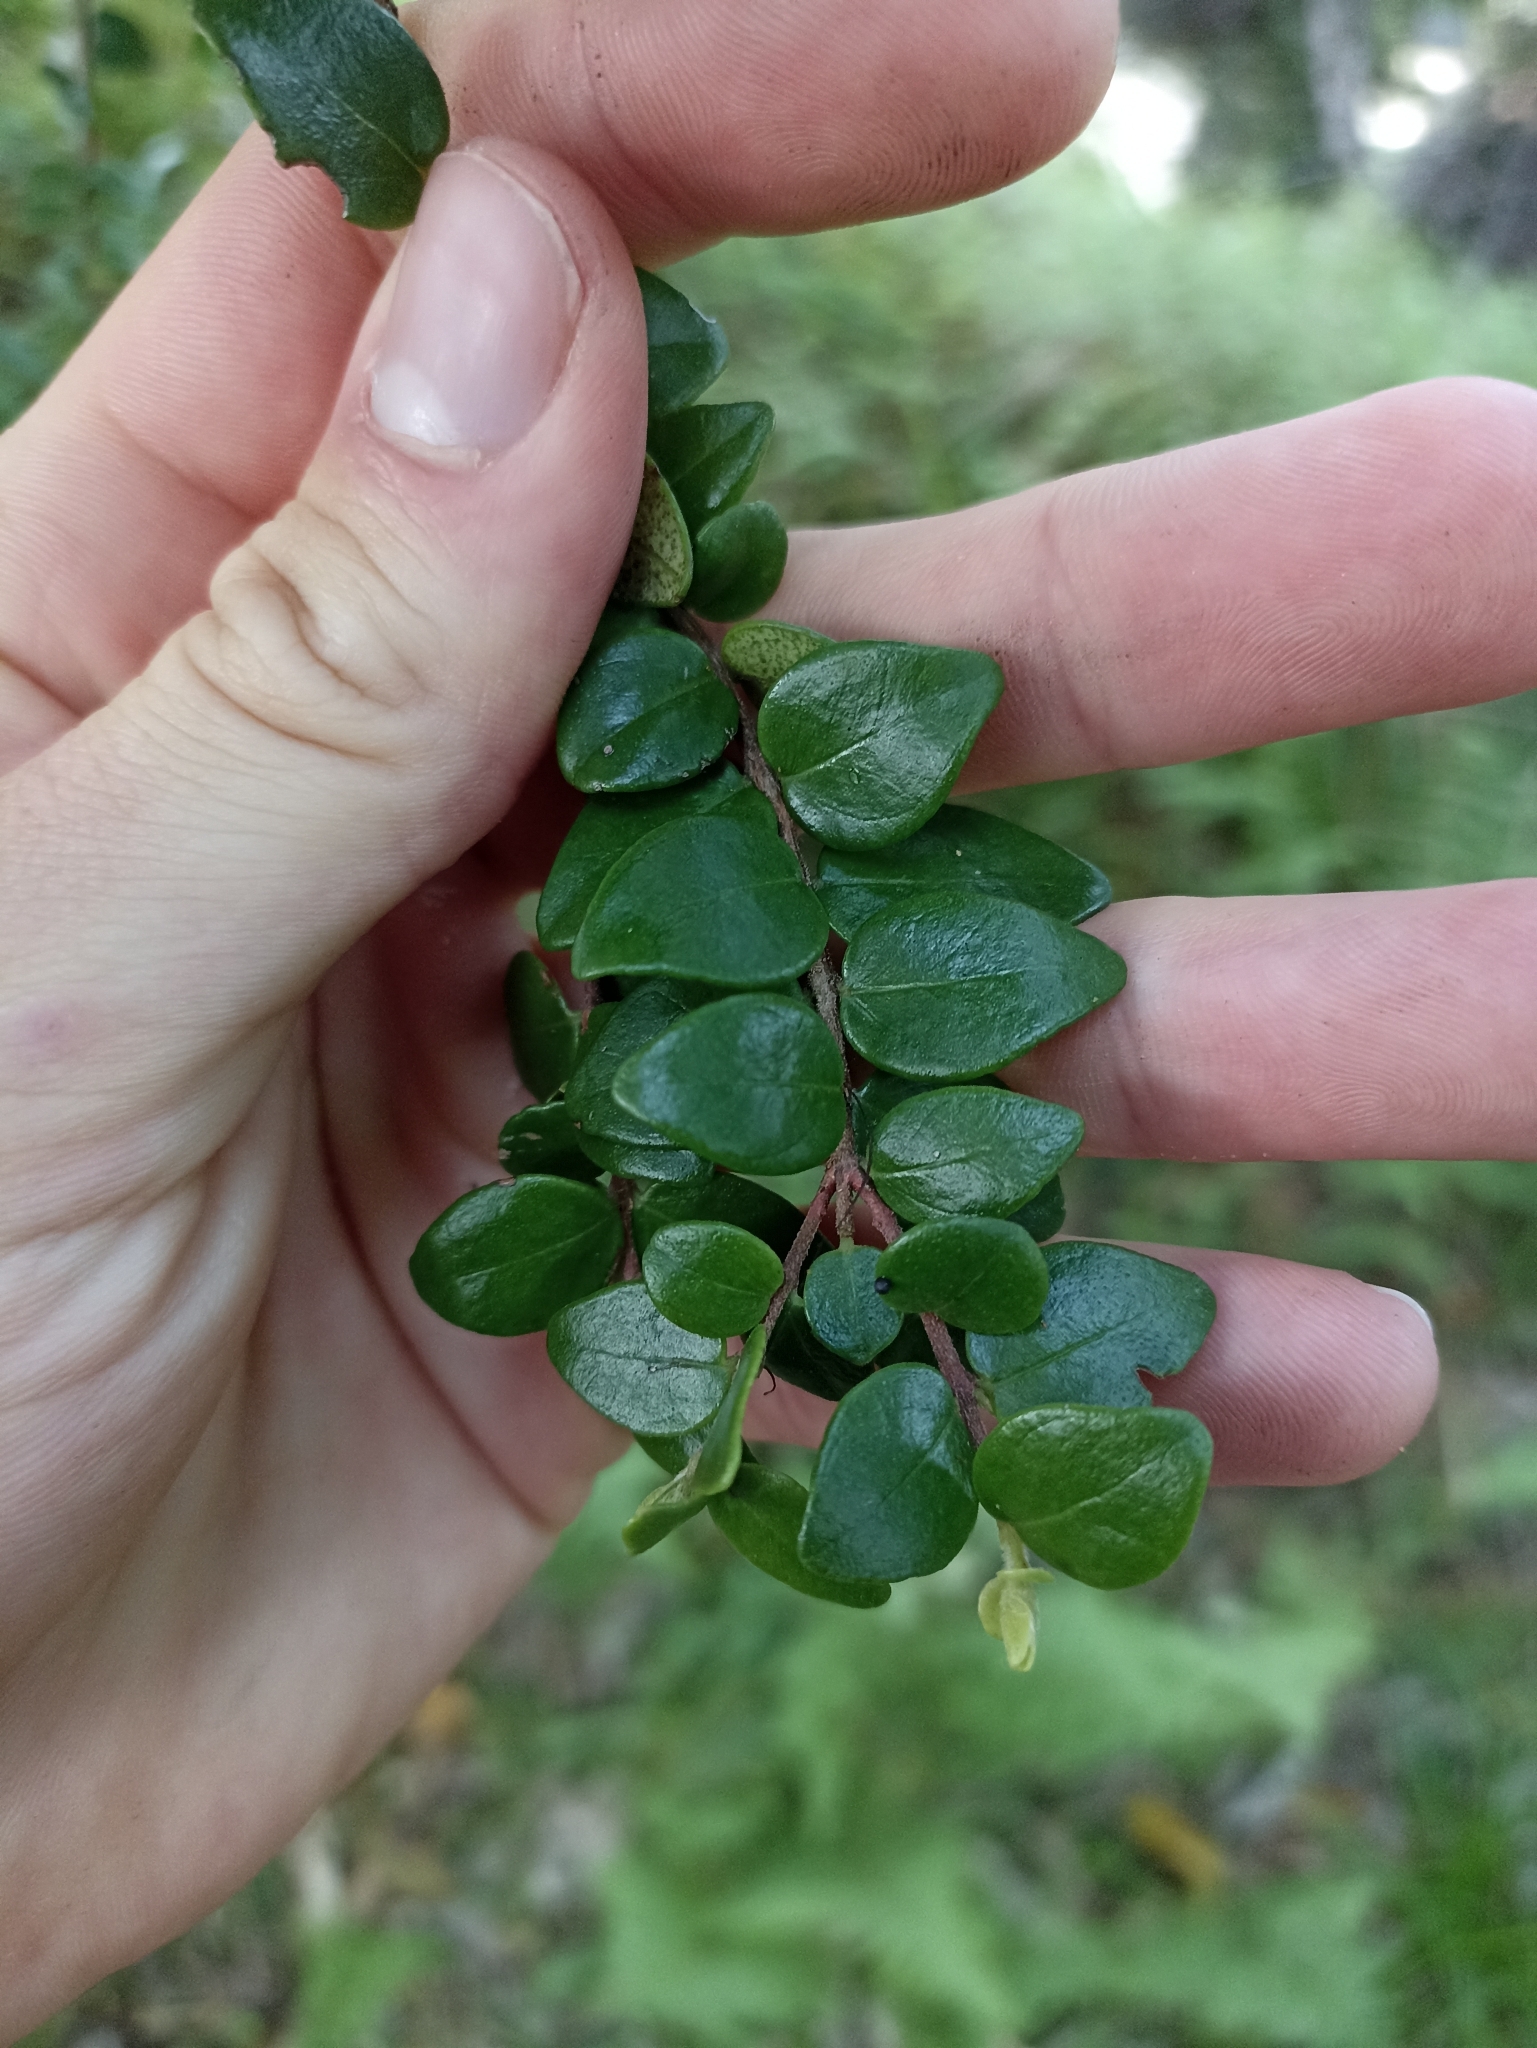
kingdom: Plantae
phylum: Tracheophyta
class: Magnoliopsida
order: Myrtales
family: Myrtaceae
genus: Metrosideros
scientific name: Metrosideros perforata
